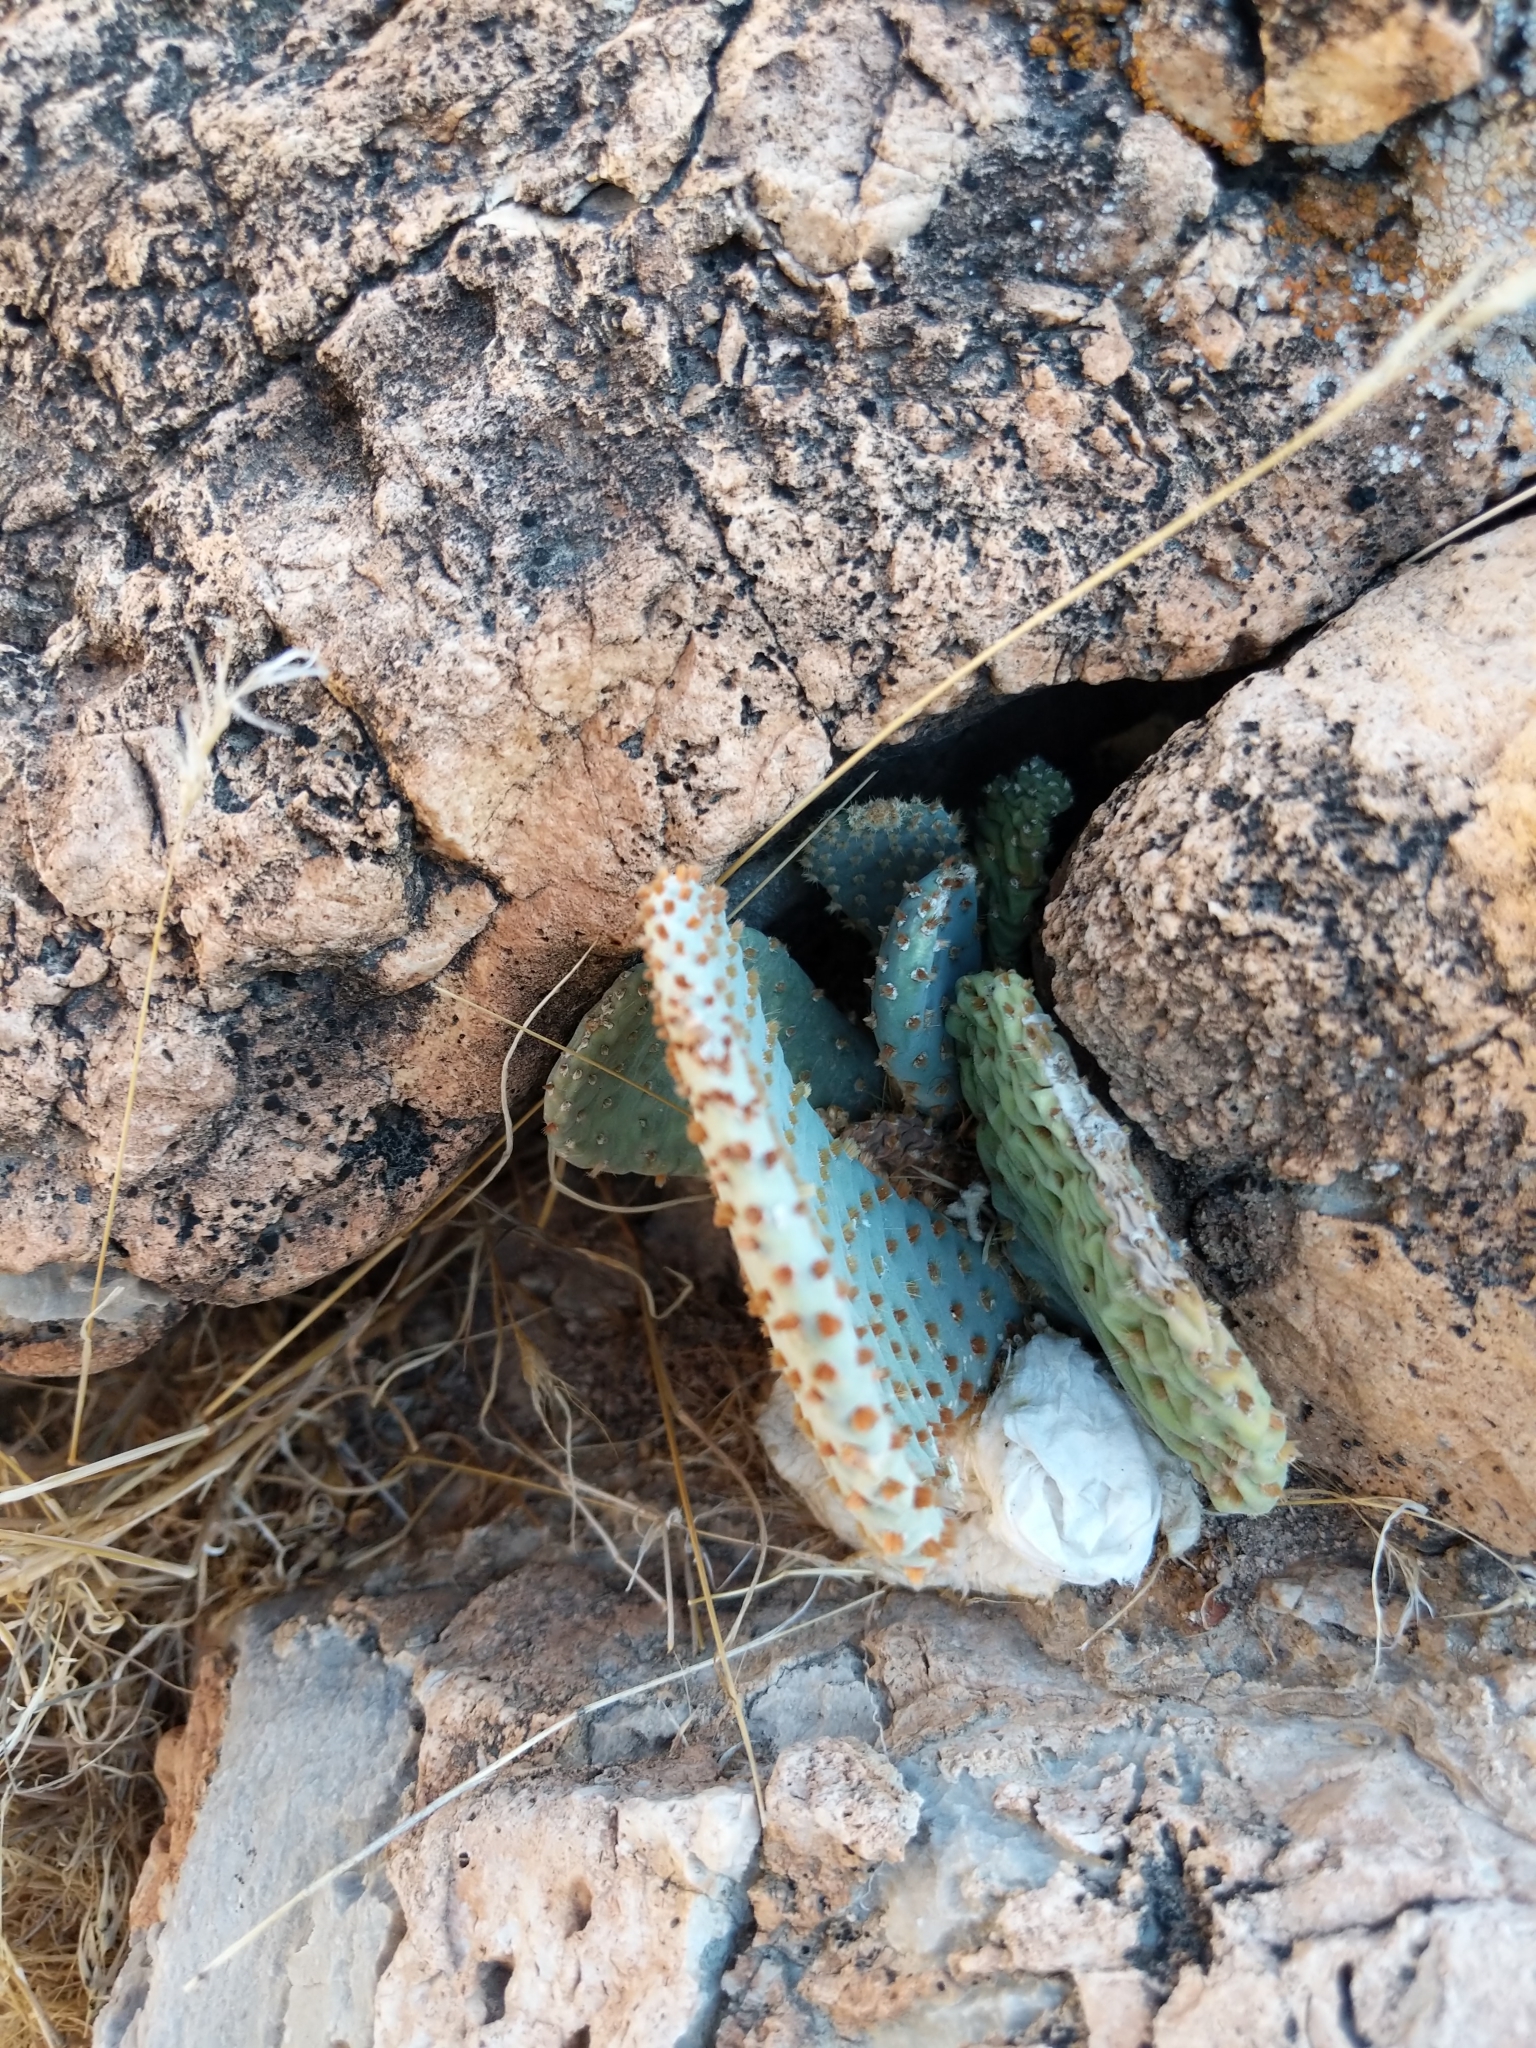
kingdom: Plantae
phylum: Tracheophyta
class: Magnoliopsida
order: Caryophyllales
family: Cactaceae
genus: Opuntia
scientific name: Opuntia basilaris
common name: Beavertail prickly-pear
